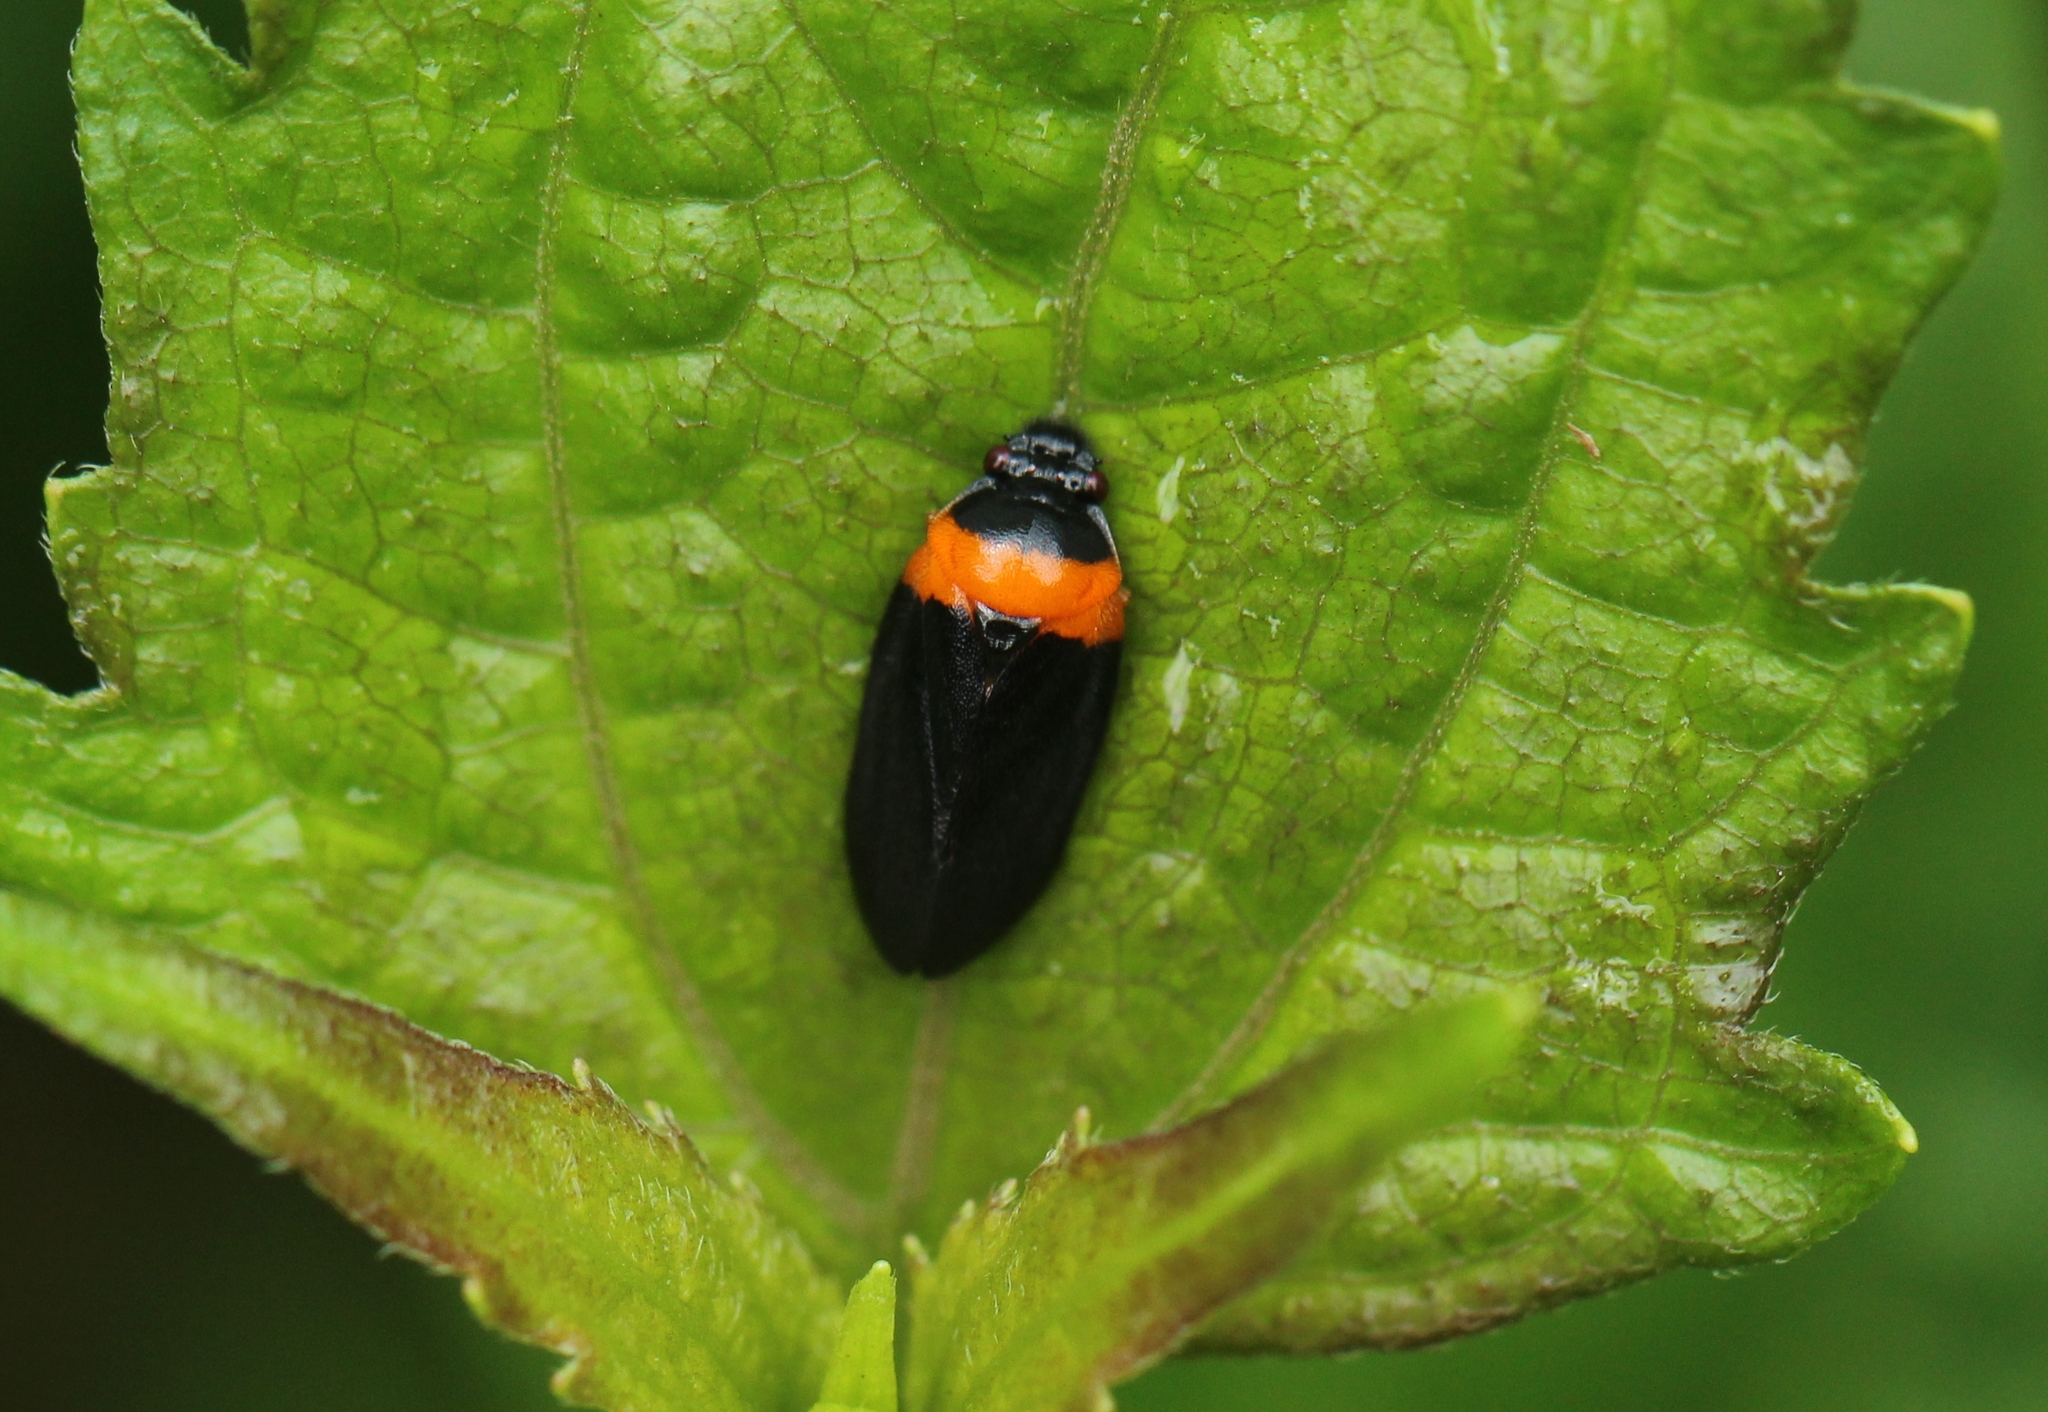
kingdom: Animalia
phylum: Arthropoda
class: Insecta
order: Hemiptera
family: Cercopidae
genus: Phymatostetha
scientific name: Phymatostetha deschampsi
